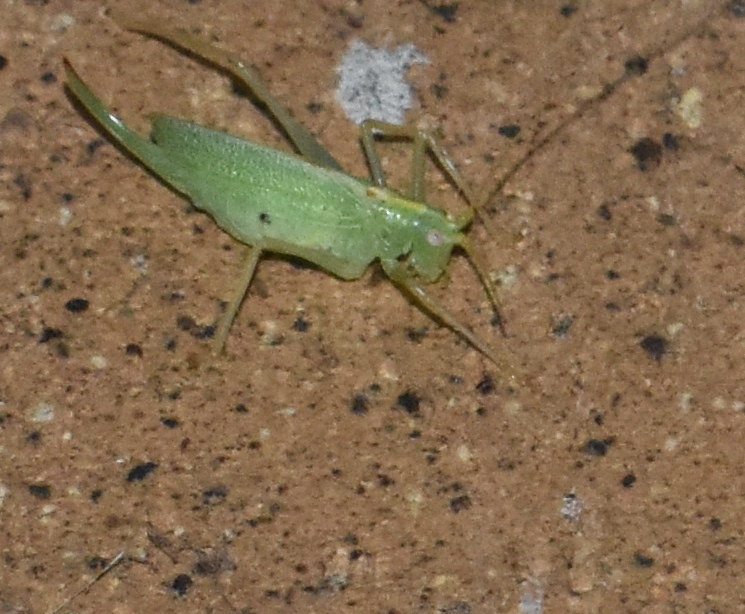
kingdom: Animalia
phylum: Arthropoda
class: Insecta
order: Orthoptera
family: Tettigoniidae
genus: Meconema
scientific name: Meconema thalassinum
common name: Oak bush-cricket
